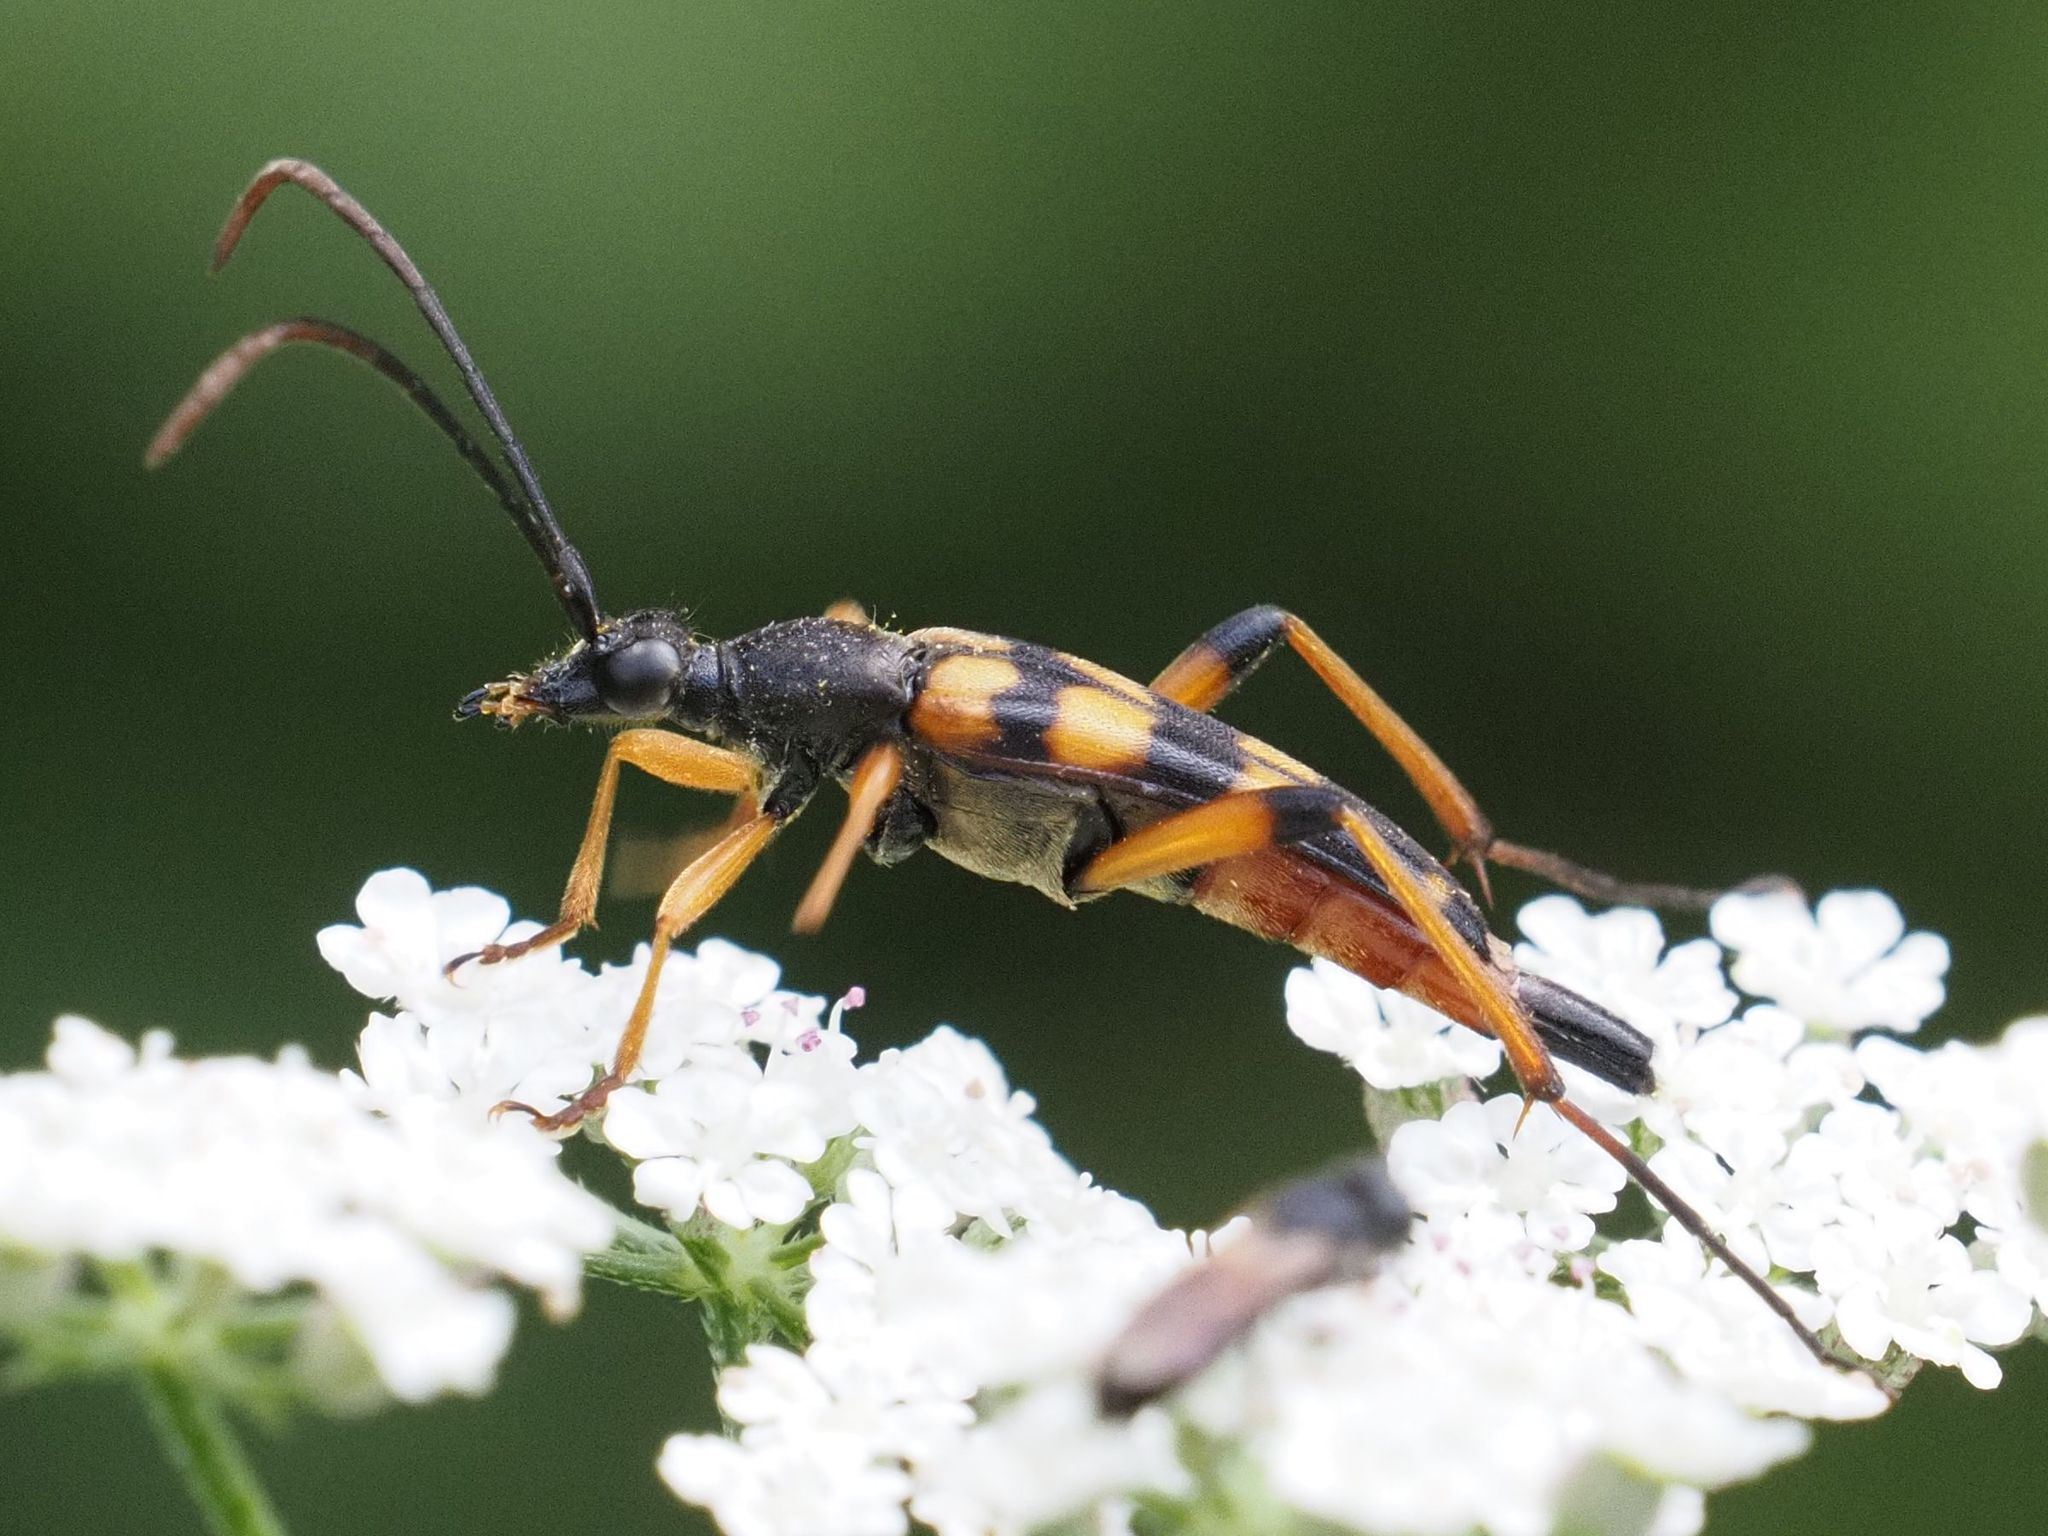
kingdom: Animalia
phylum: Arthropoda
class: Insecta
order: Coleoptera
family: Cerambycidae
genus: Strangalia
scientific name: Strangalia attenuata
